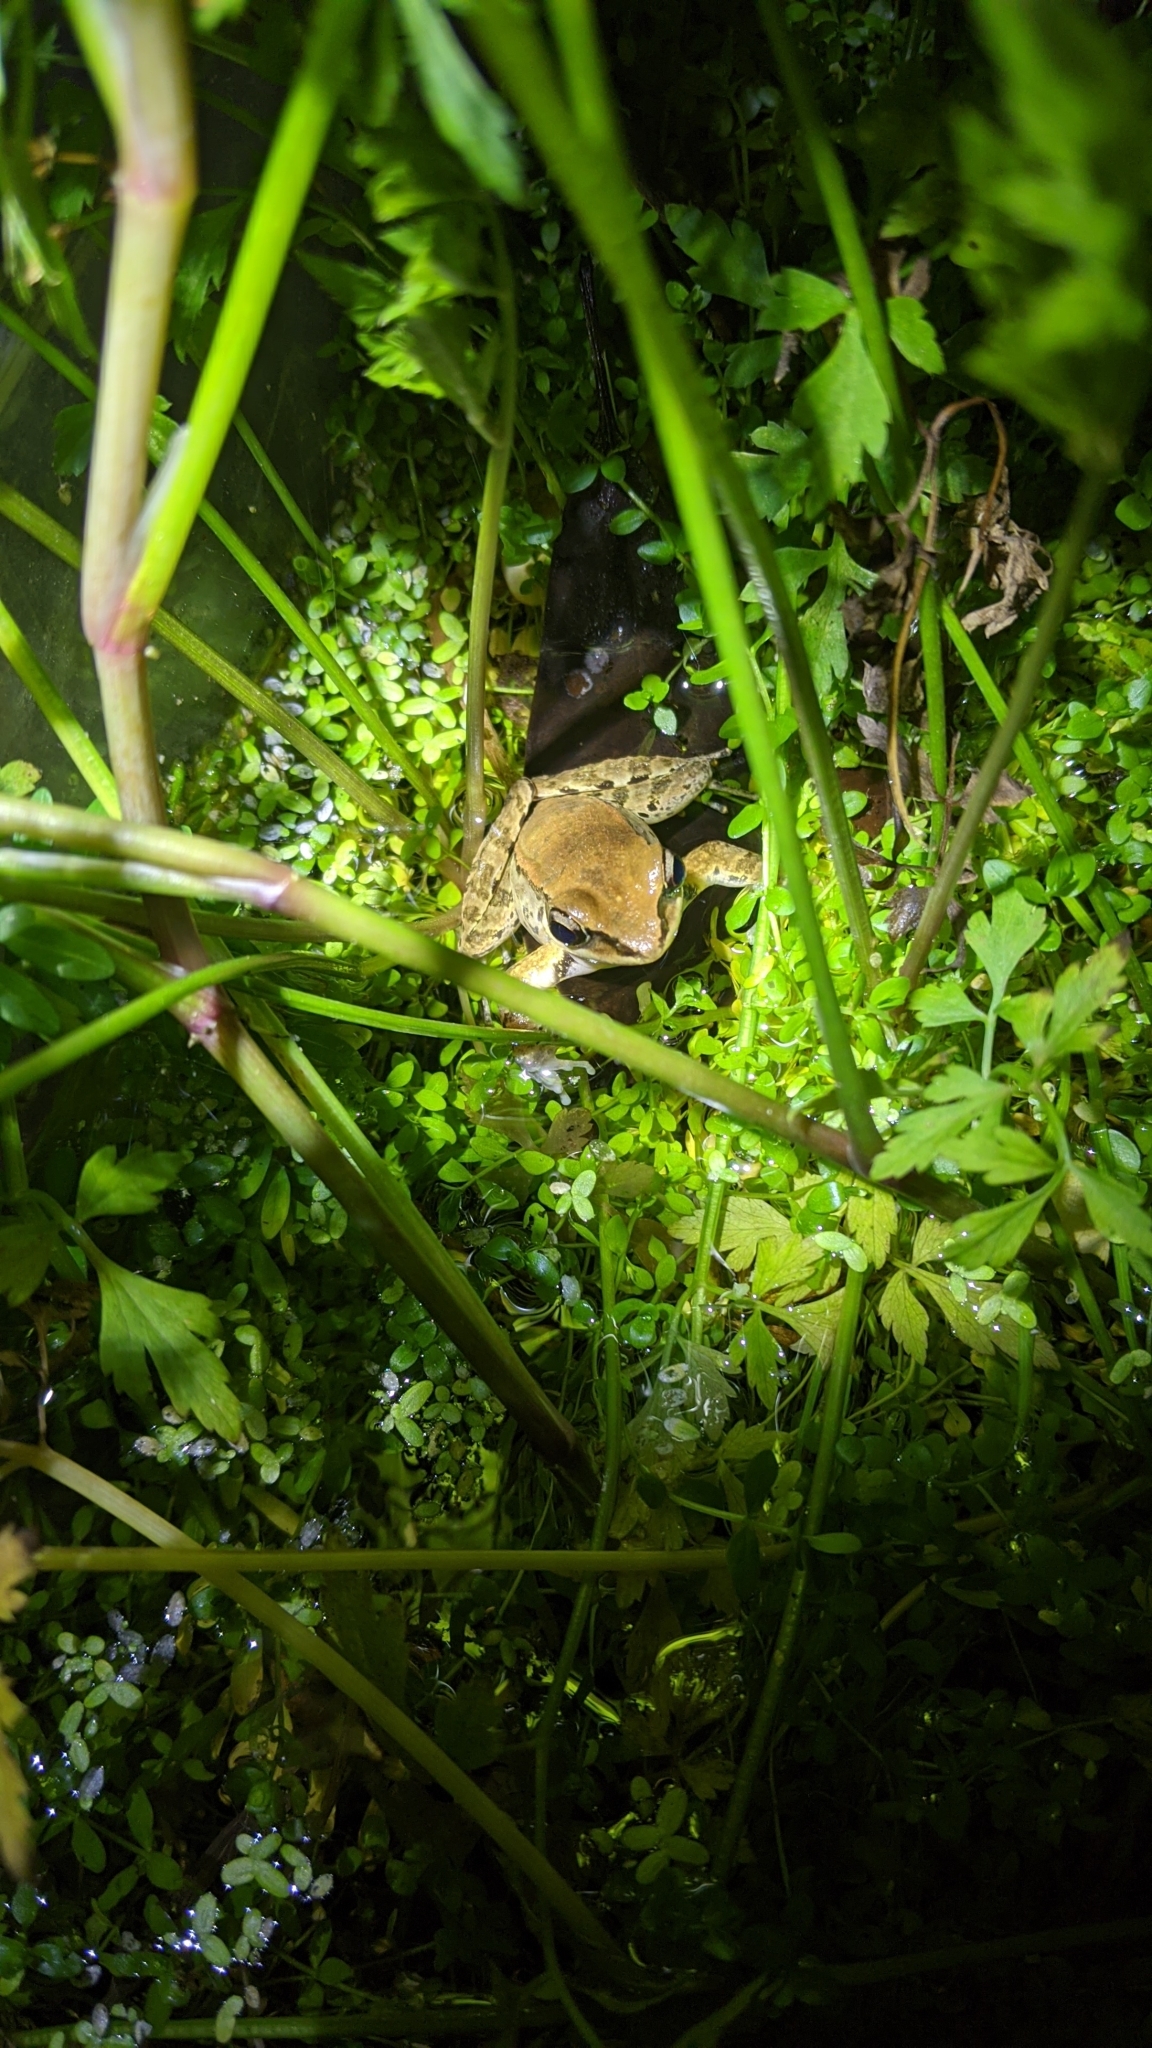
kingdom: Animalia
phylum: Chordata
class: Amphibia
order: Anura
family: Ranidae
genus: Hylarana
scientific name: Hylarana latouchii
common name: Broad-folded frog
